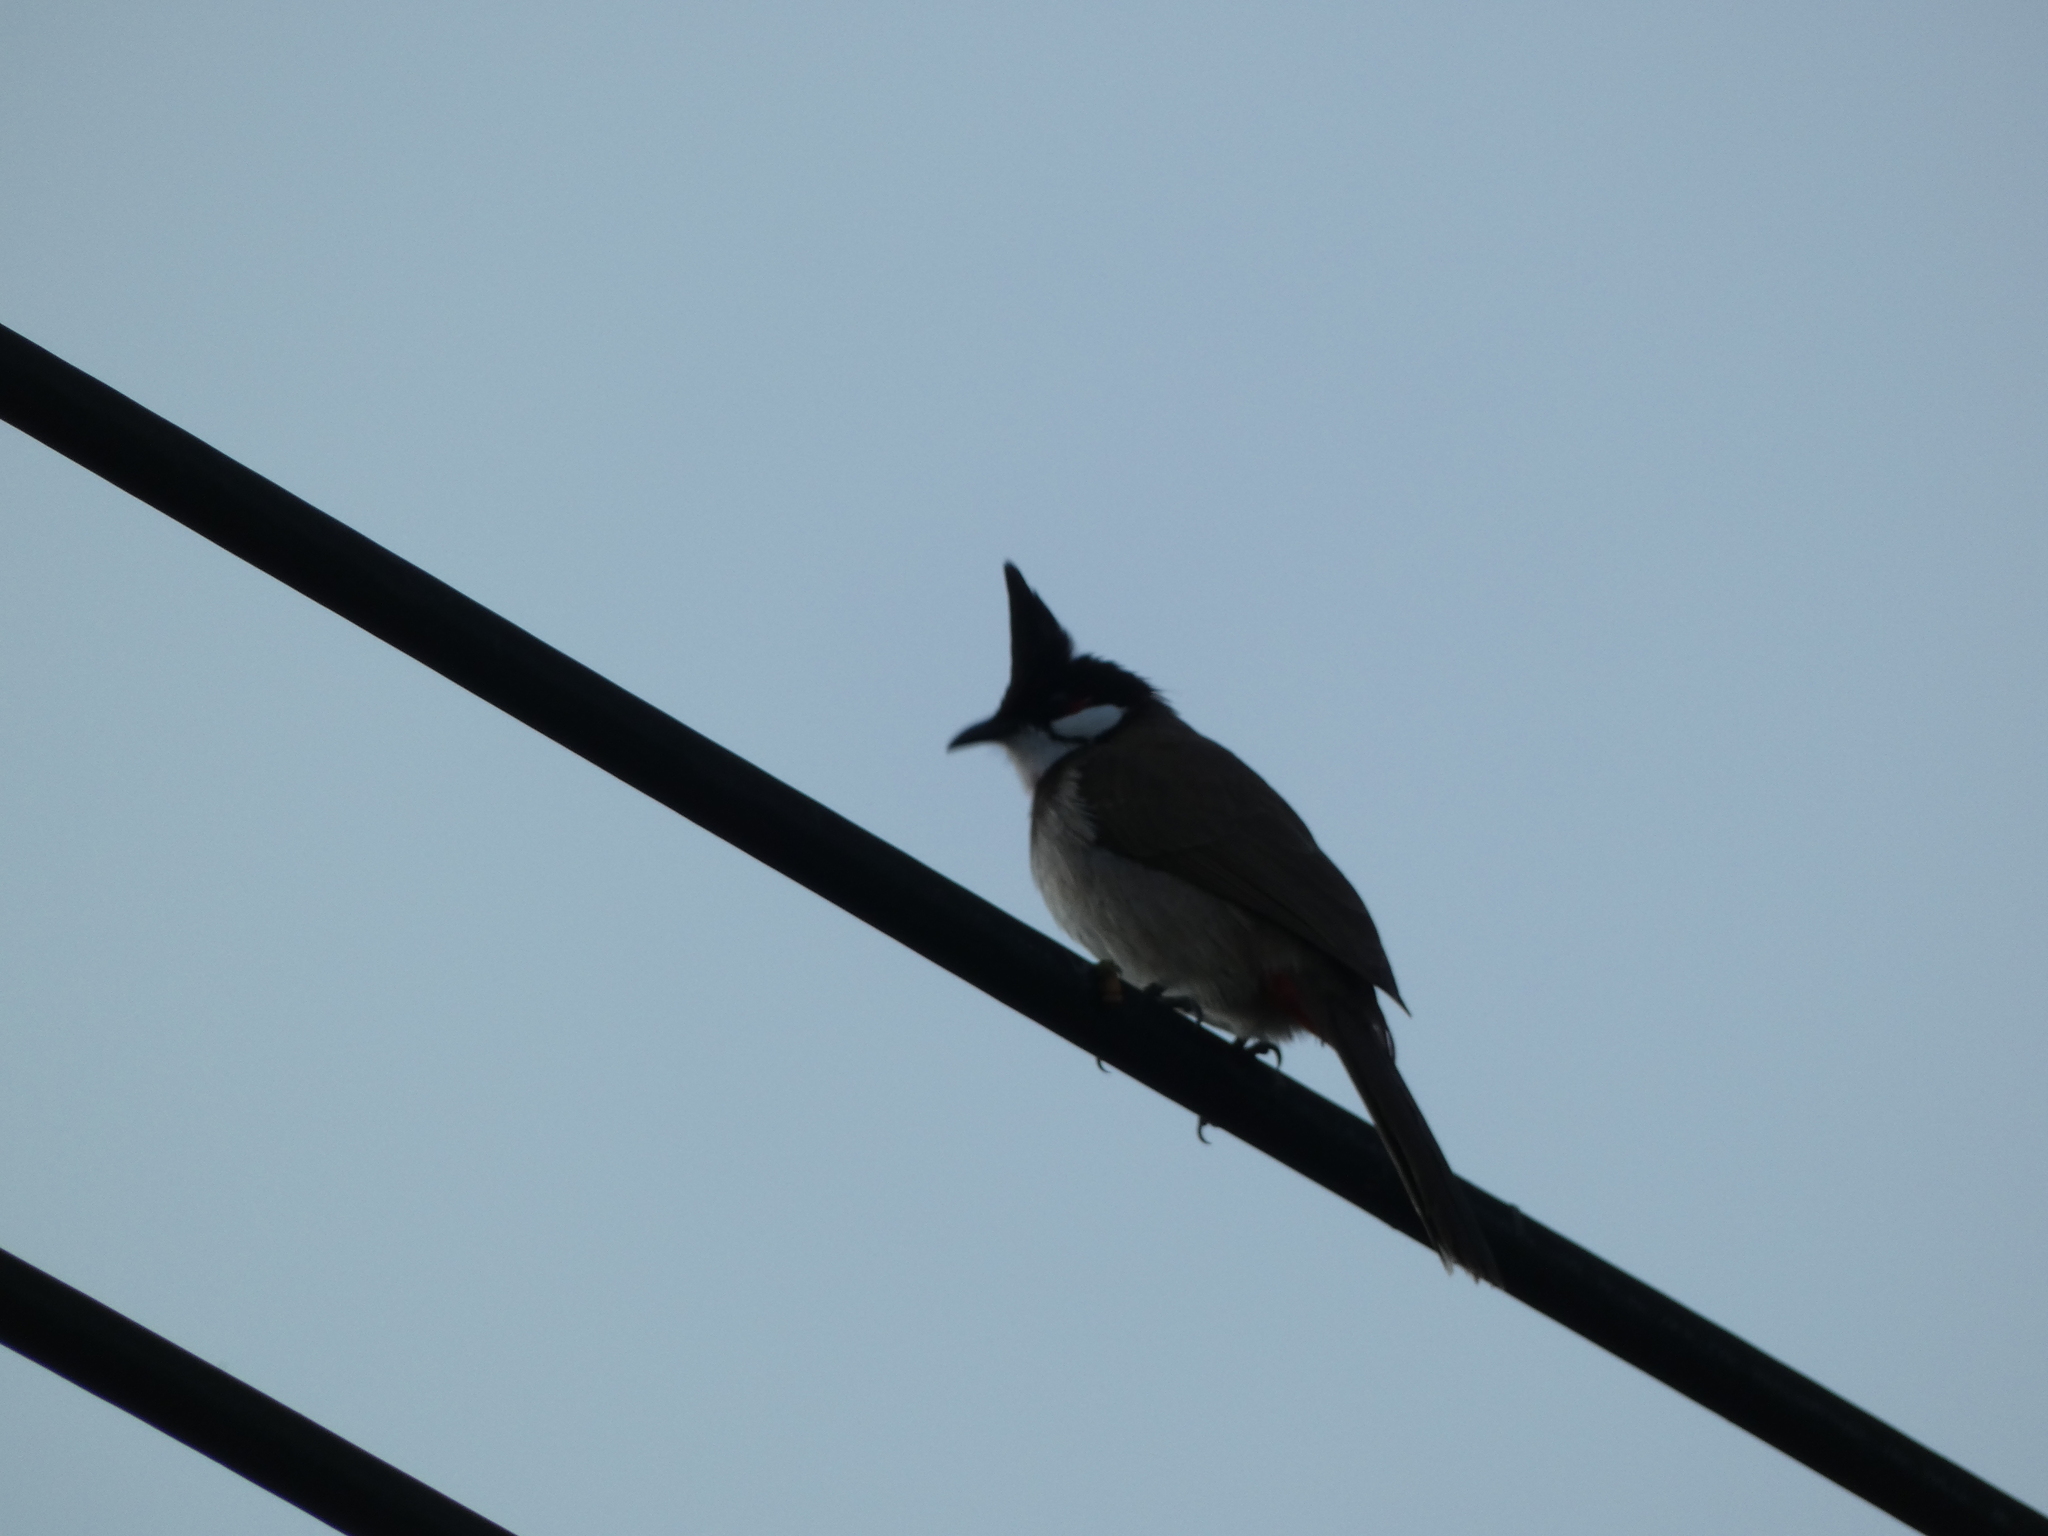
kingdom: Animalia
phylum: Chordata
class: Aves
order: Passeriformes
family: Pycnonotidae
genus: Pycnonotus
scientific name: Pycnonotus jocosus
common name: Red-whiskered bulbul
